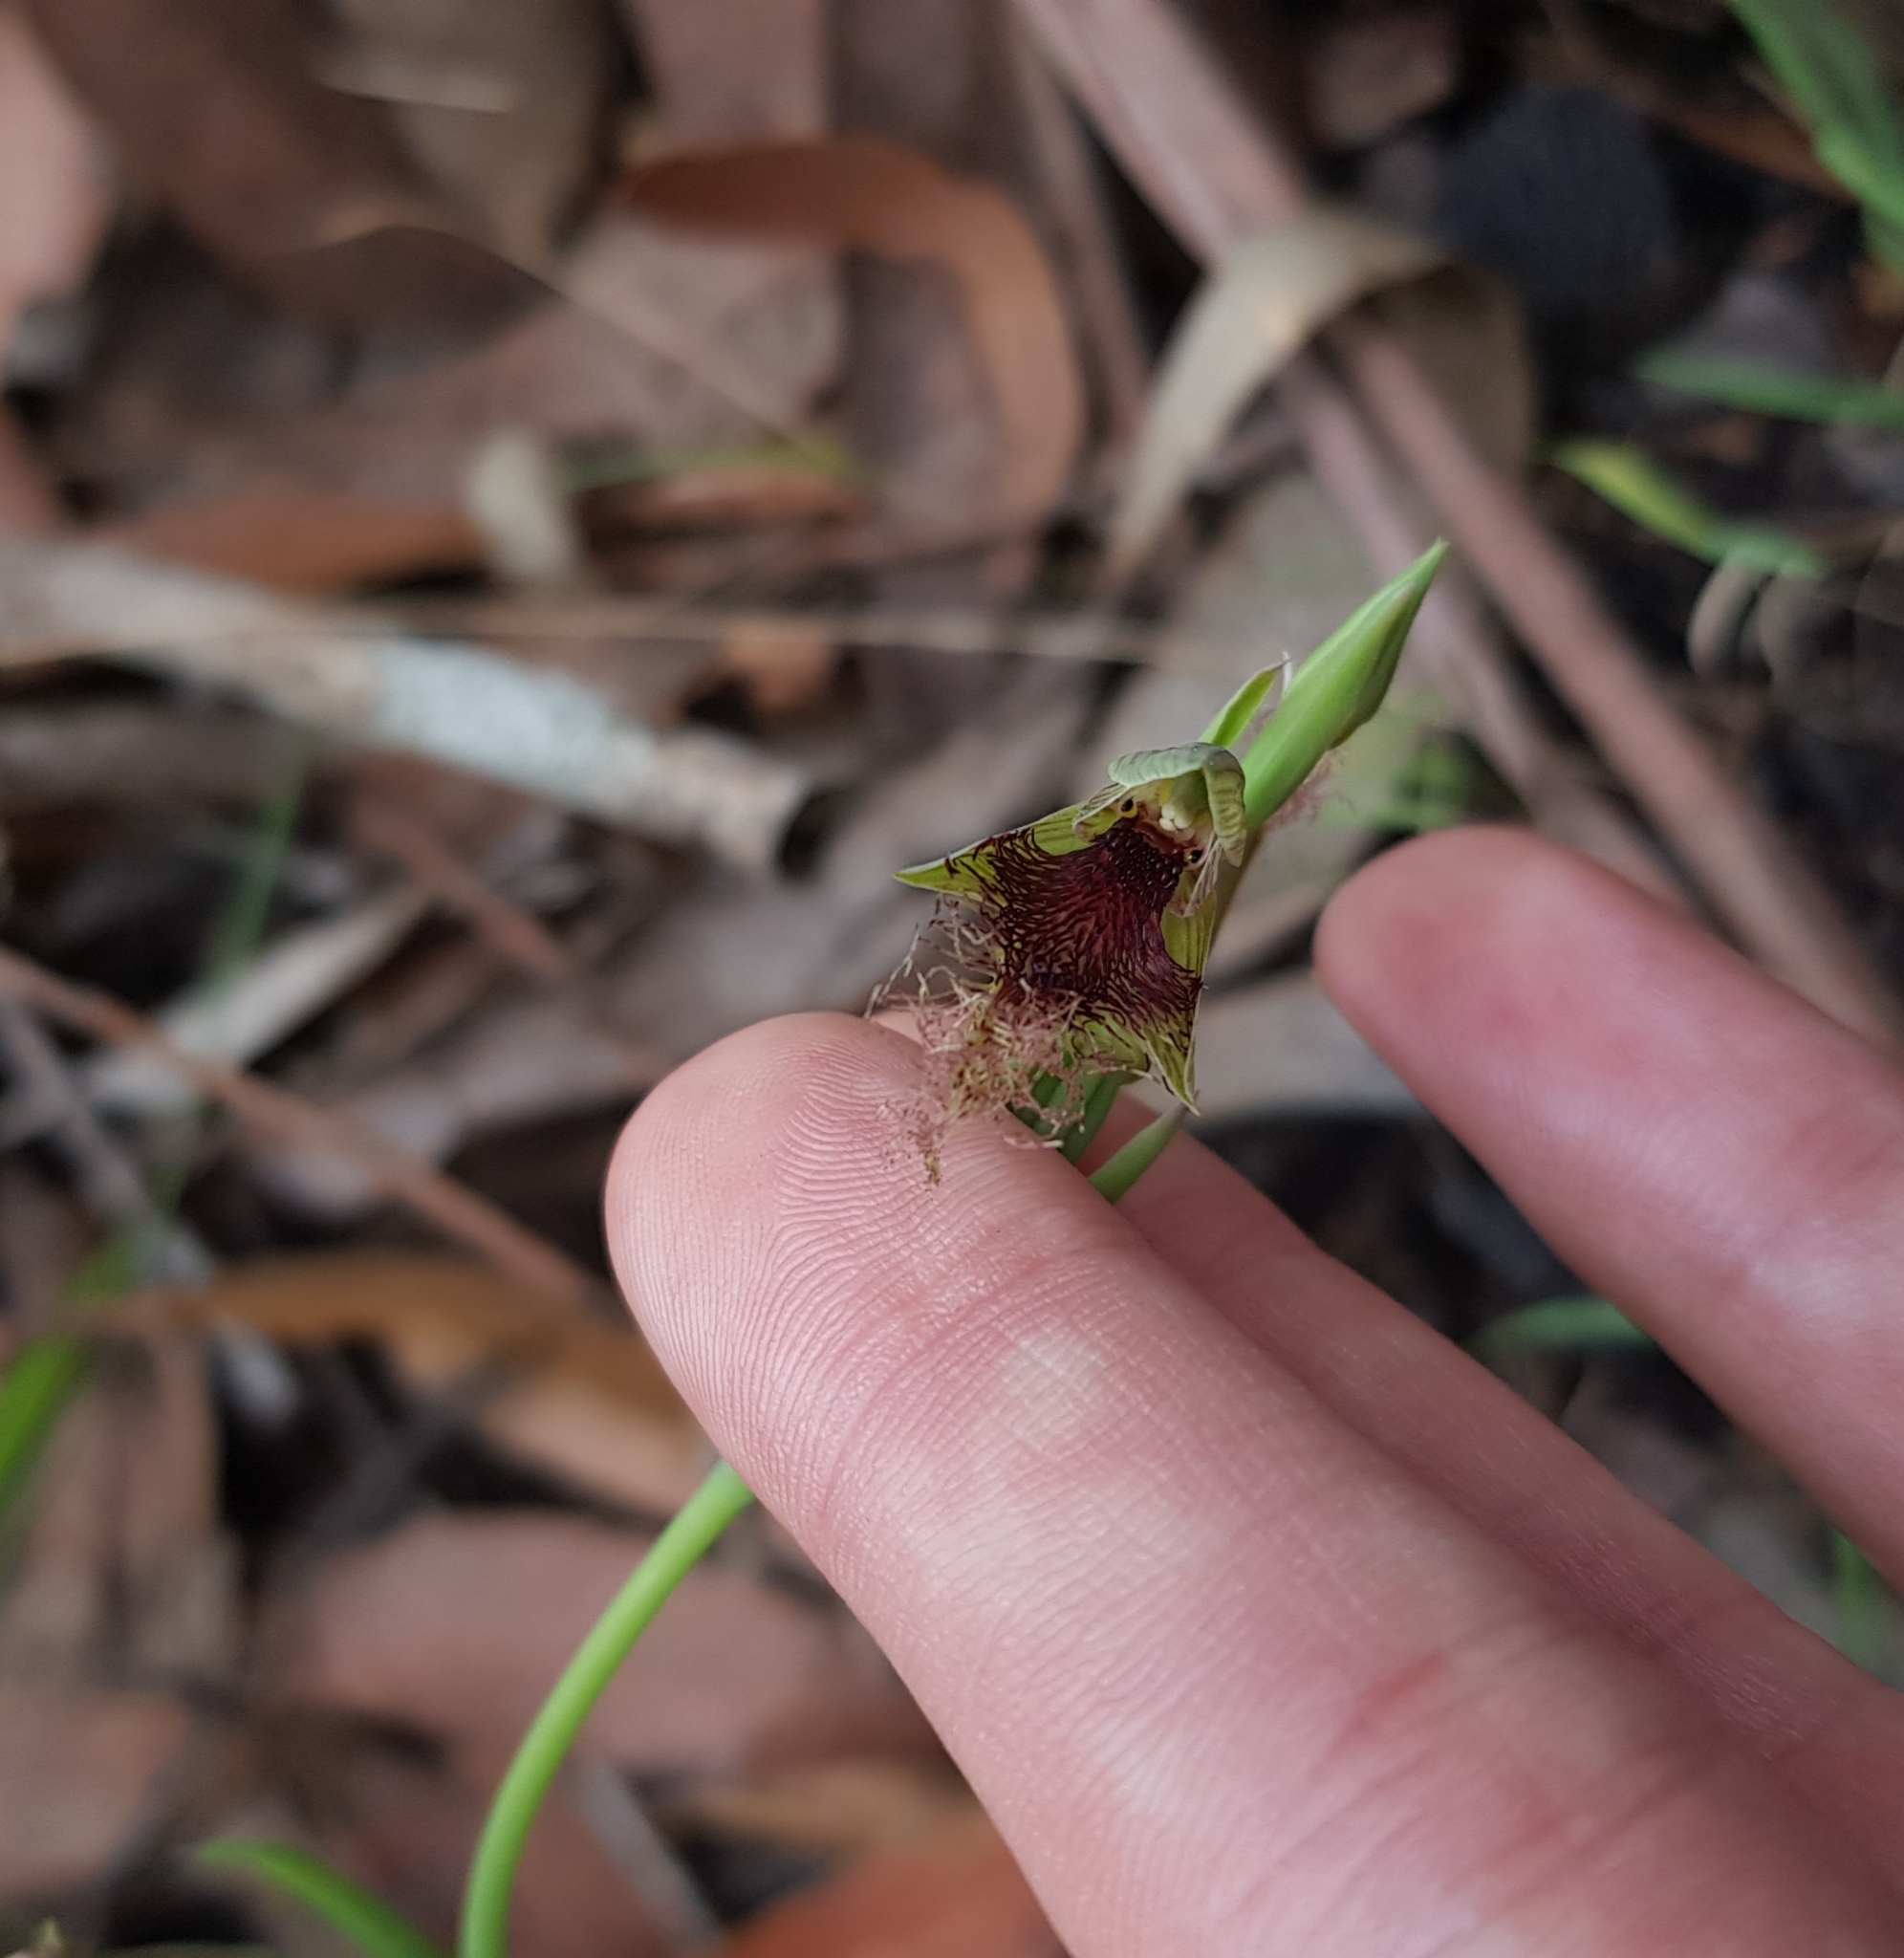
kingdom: Plantae
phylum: Tracheophyta
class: Liliopsida
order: Asparagales
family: Orchidaceae
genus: Calochilus
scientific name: Calochilus robertsonii
